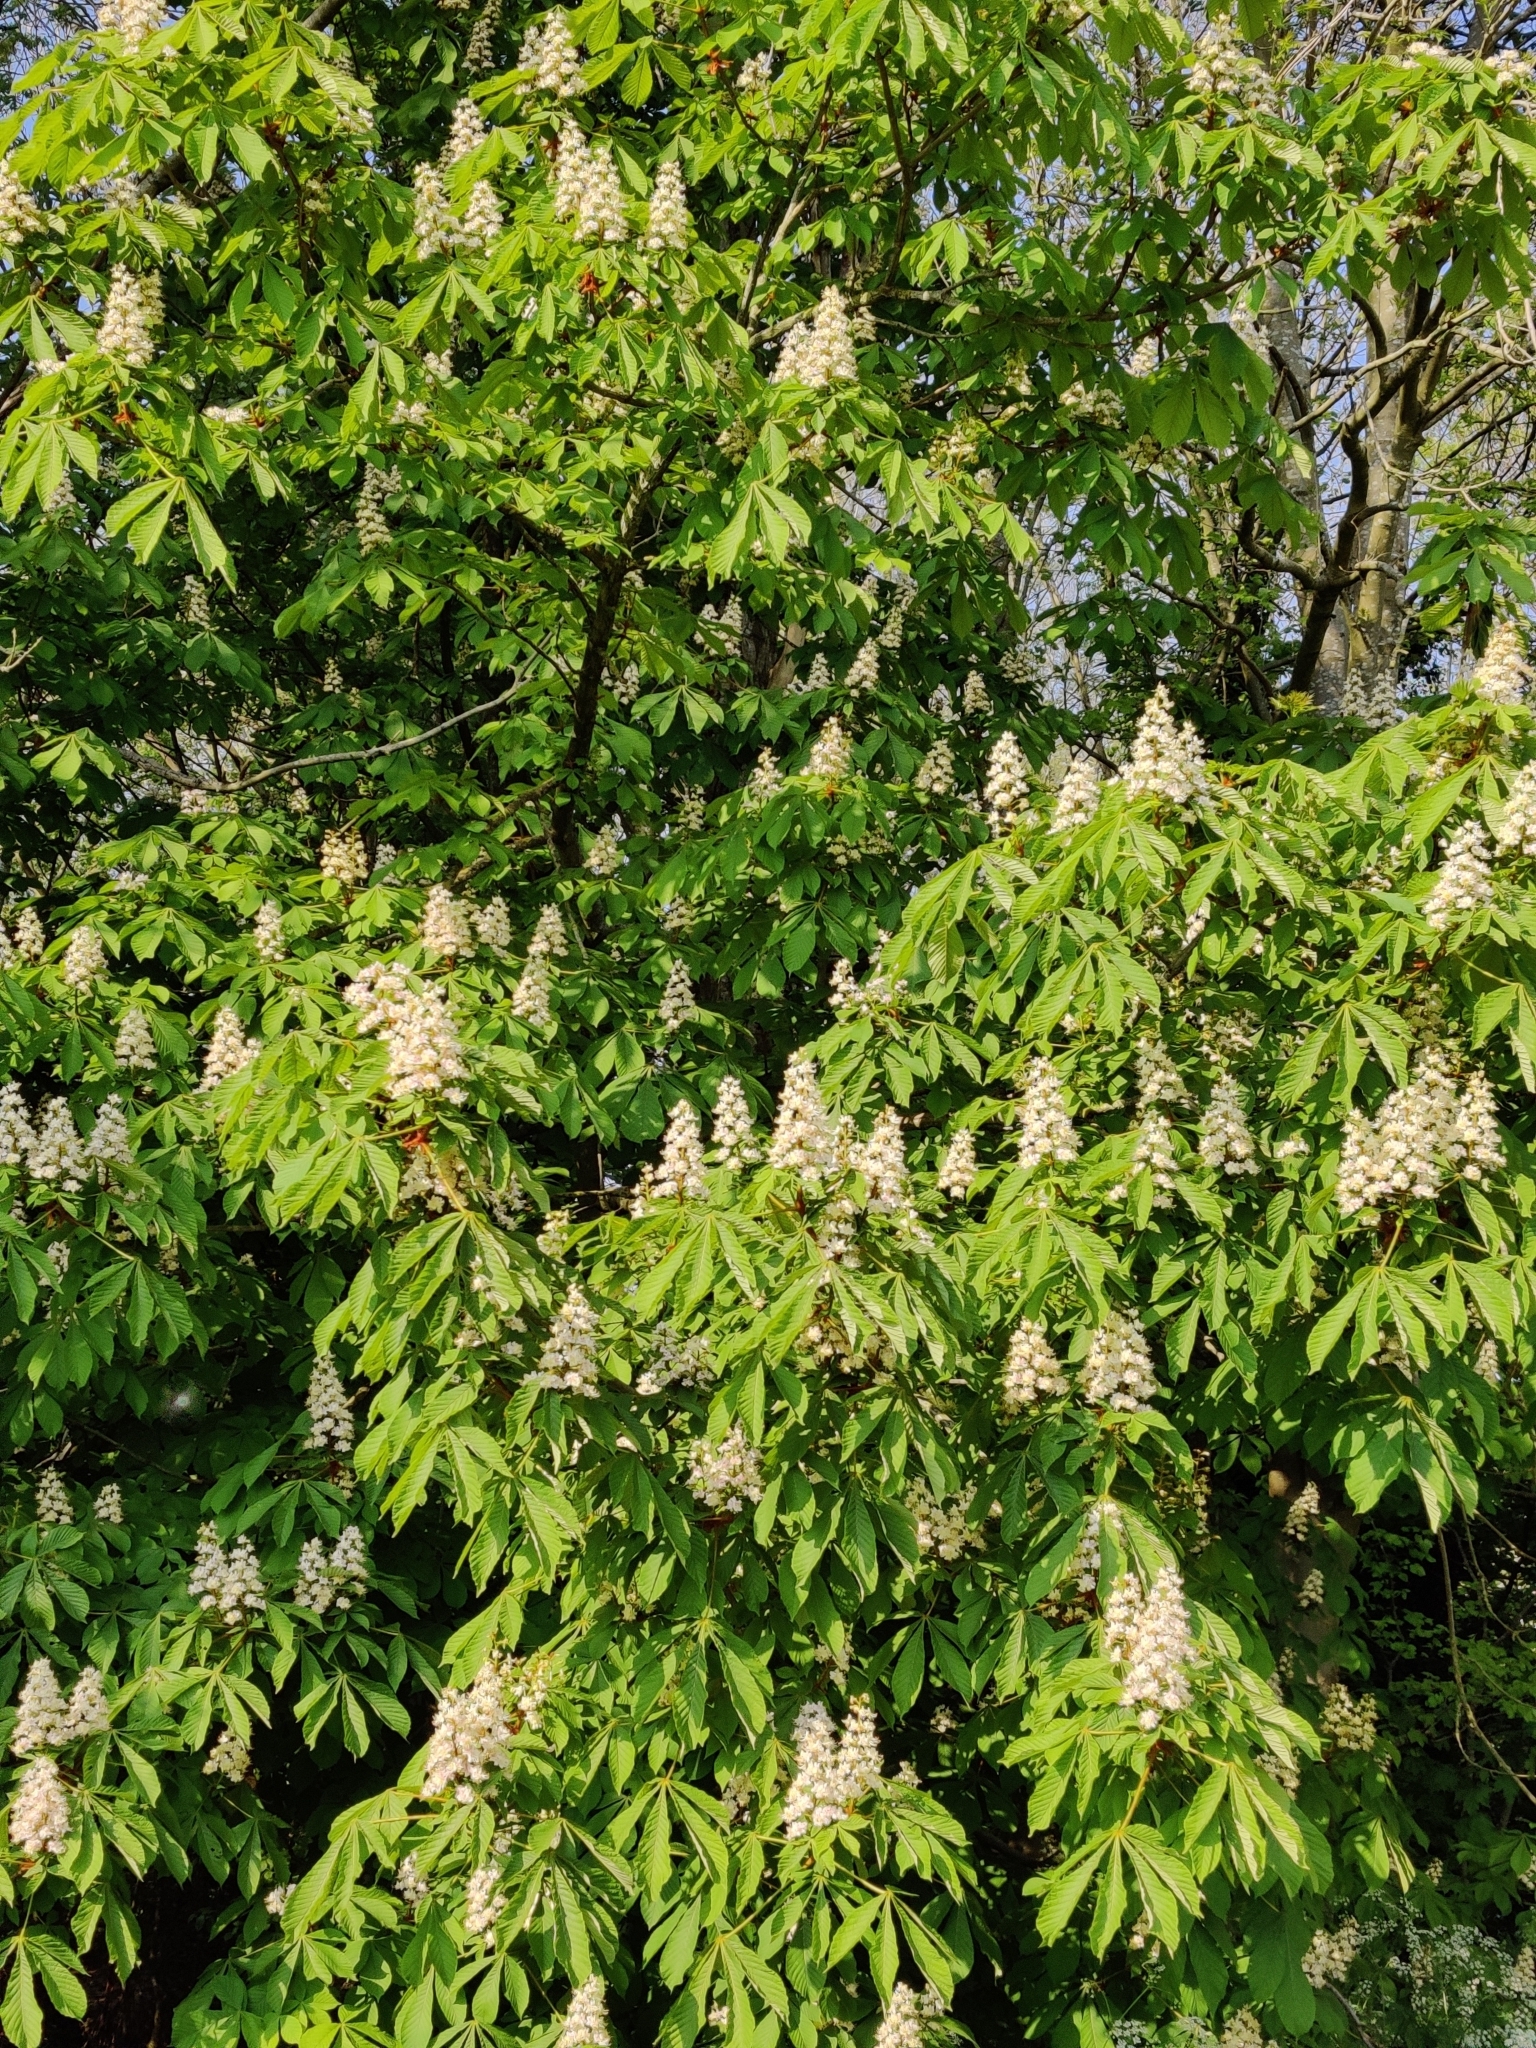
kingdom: Plantae
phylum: Tracheophyta
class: Magnoliopsida
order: Sapindales
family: Sapindaceae
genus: Aesculus
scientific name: Aesculus hippocastanum
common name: Horse-chestnut
